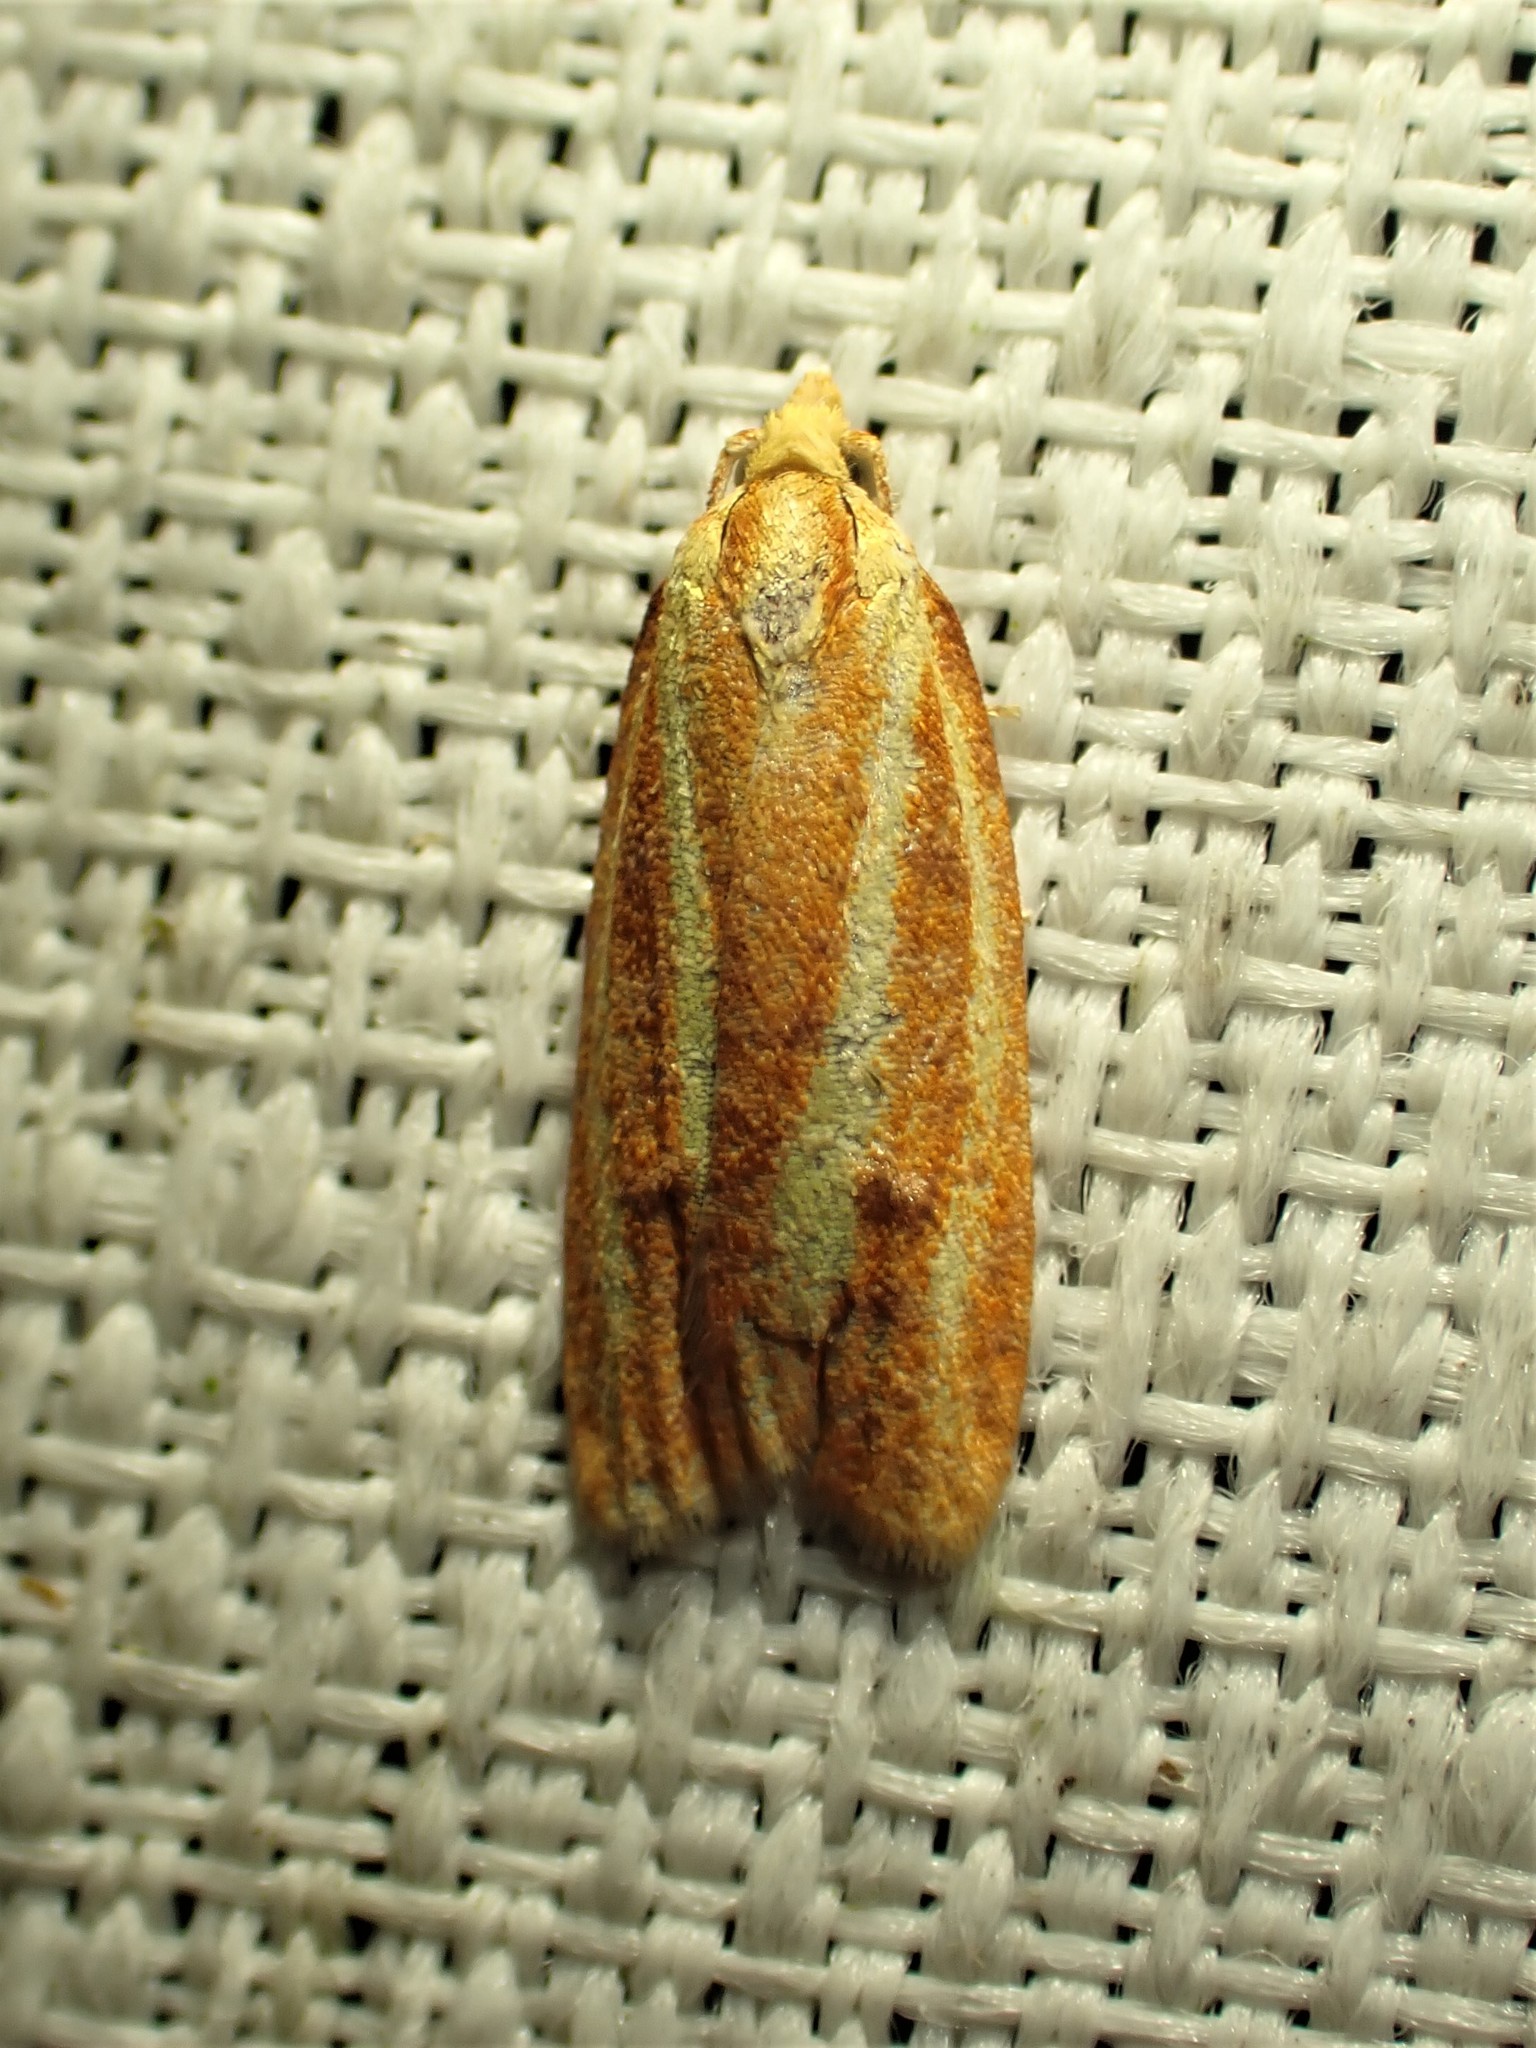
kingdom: Animalia
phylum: Arthropoda
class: Insecta
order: Lepidoptera
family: Tortricidae
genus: Sparganothis
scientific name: Sparganothis tristriata
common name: Three-streaked sparganothis moth
